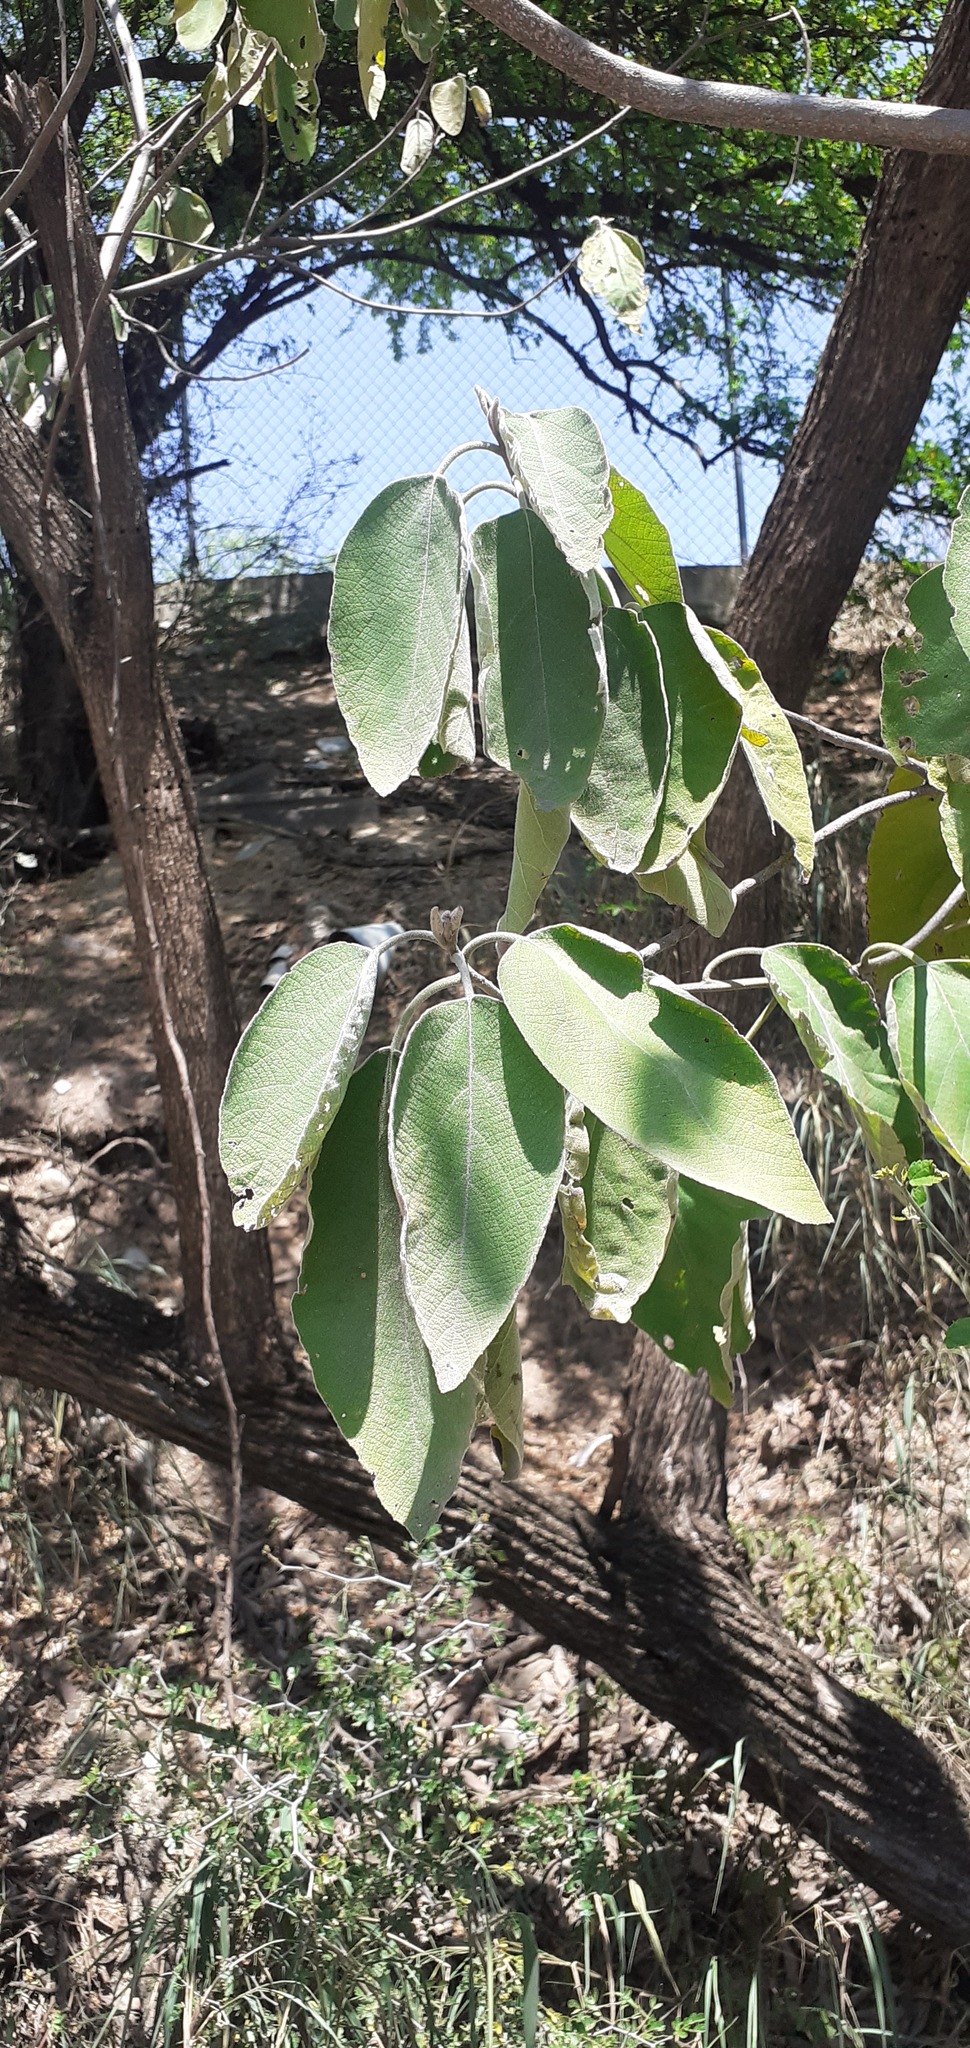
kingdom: Plantae
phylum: Tracheophyta
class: Magnoliopsida
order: Boraginales
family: Cordiaceae
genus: Cordia
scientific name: Cordia boissieri
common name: Mexican-olive
